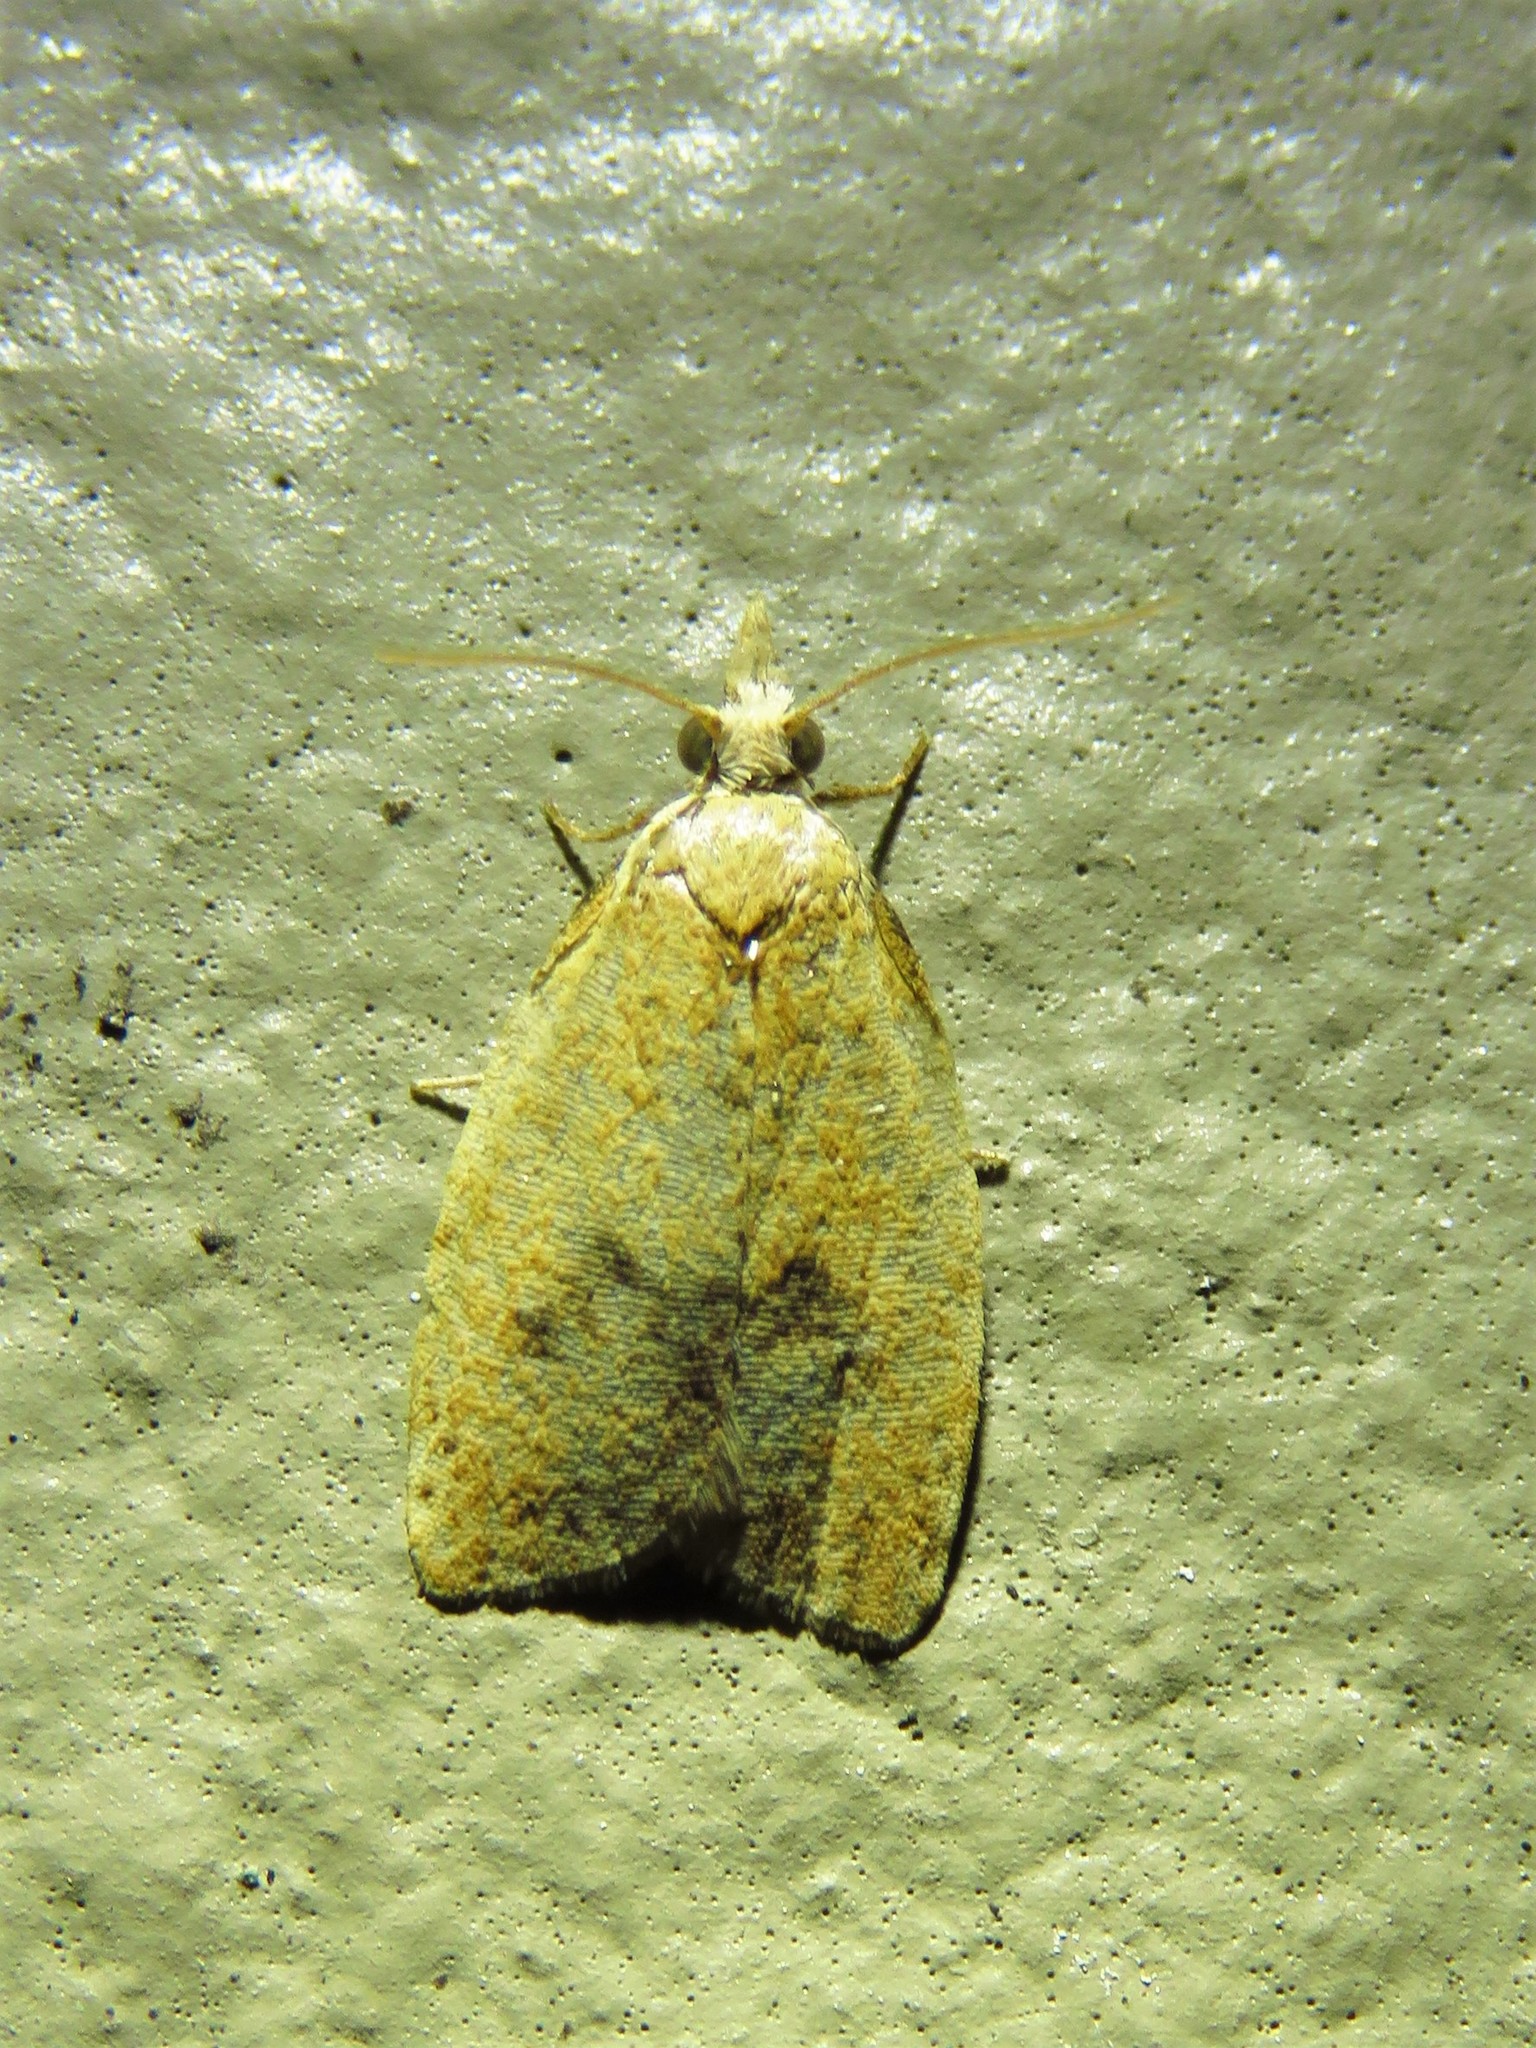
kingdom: Animalia
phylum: Arthropoda
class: Insecta
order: Lepidoptera
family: Tortricidae
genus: Sparganothoides
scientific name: Sparganothoides lentiginosana
